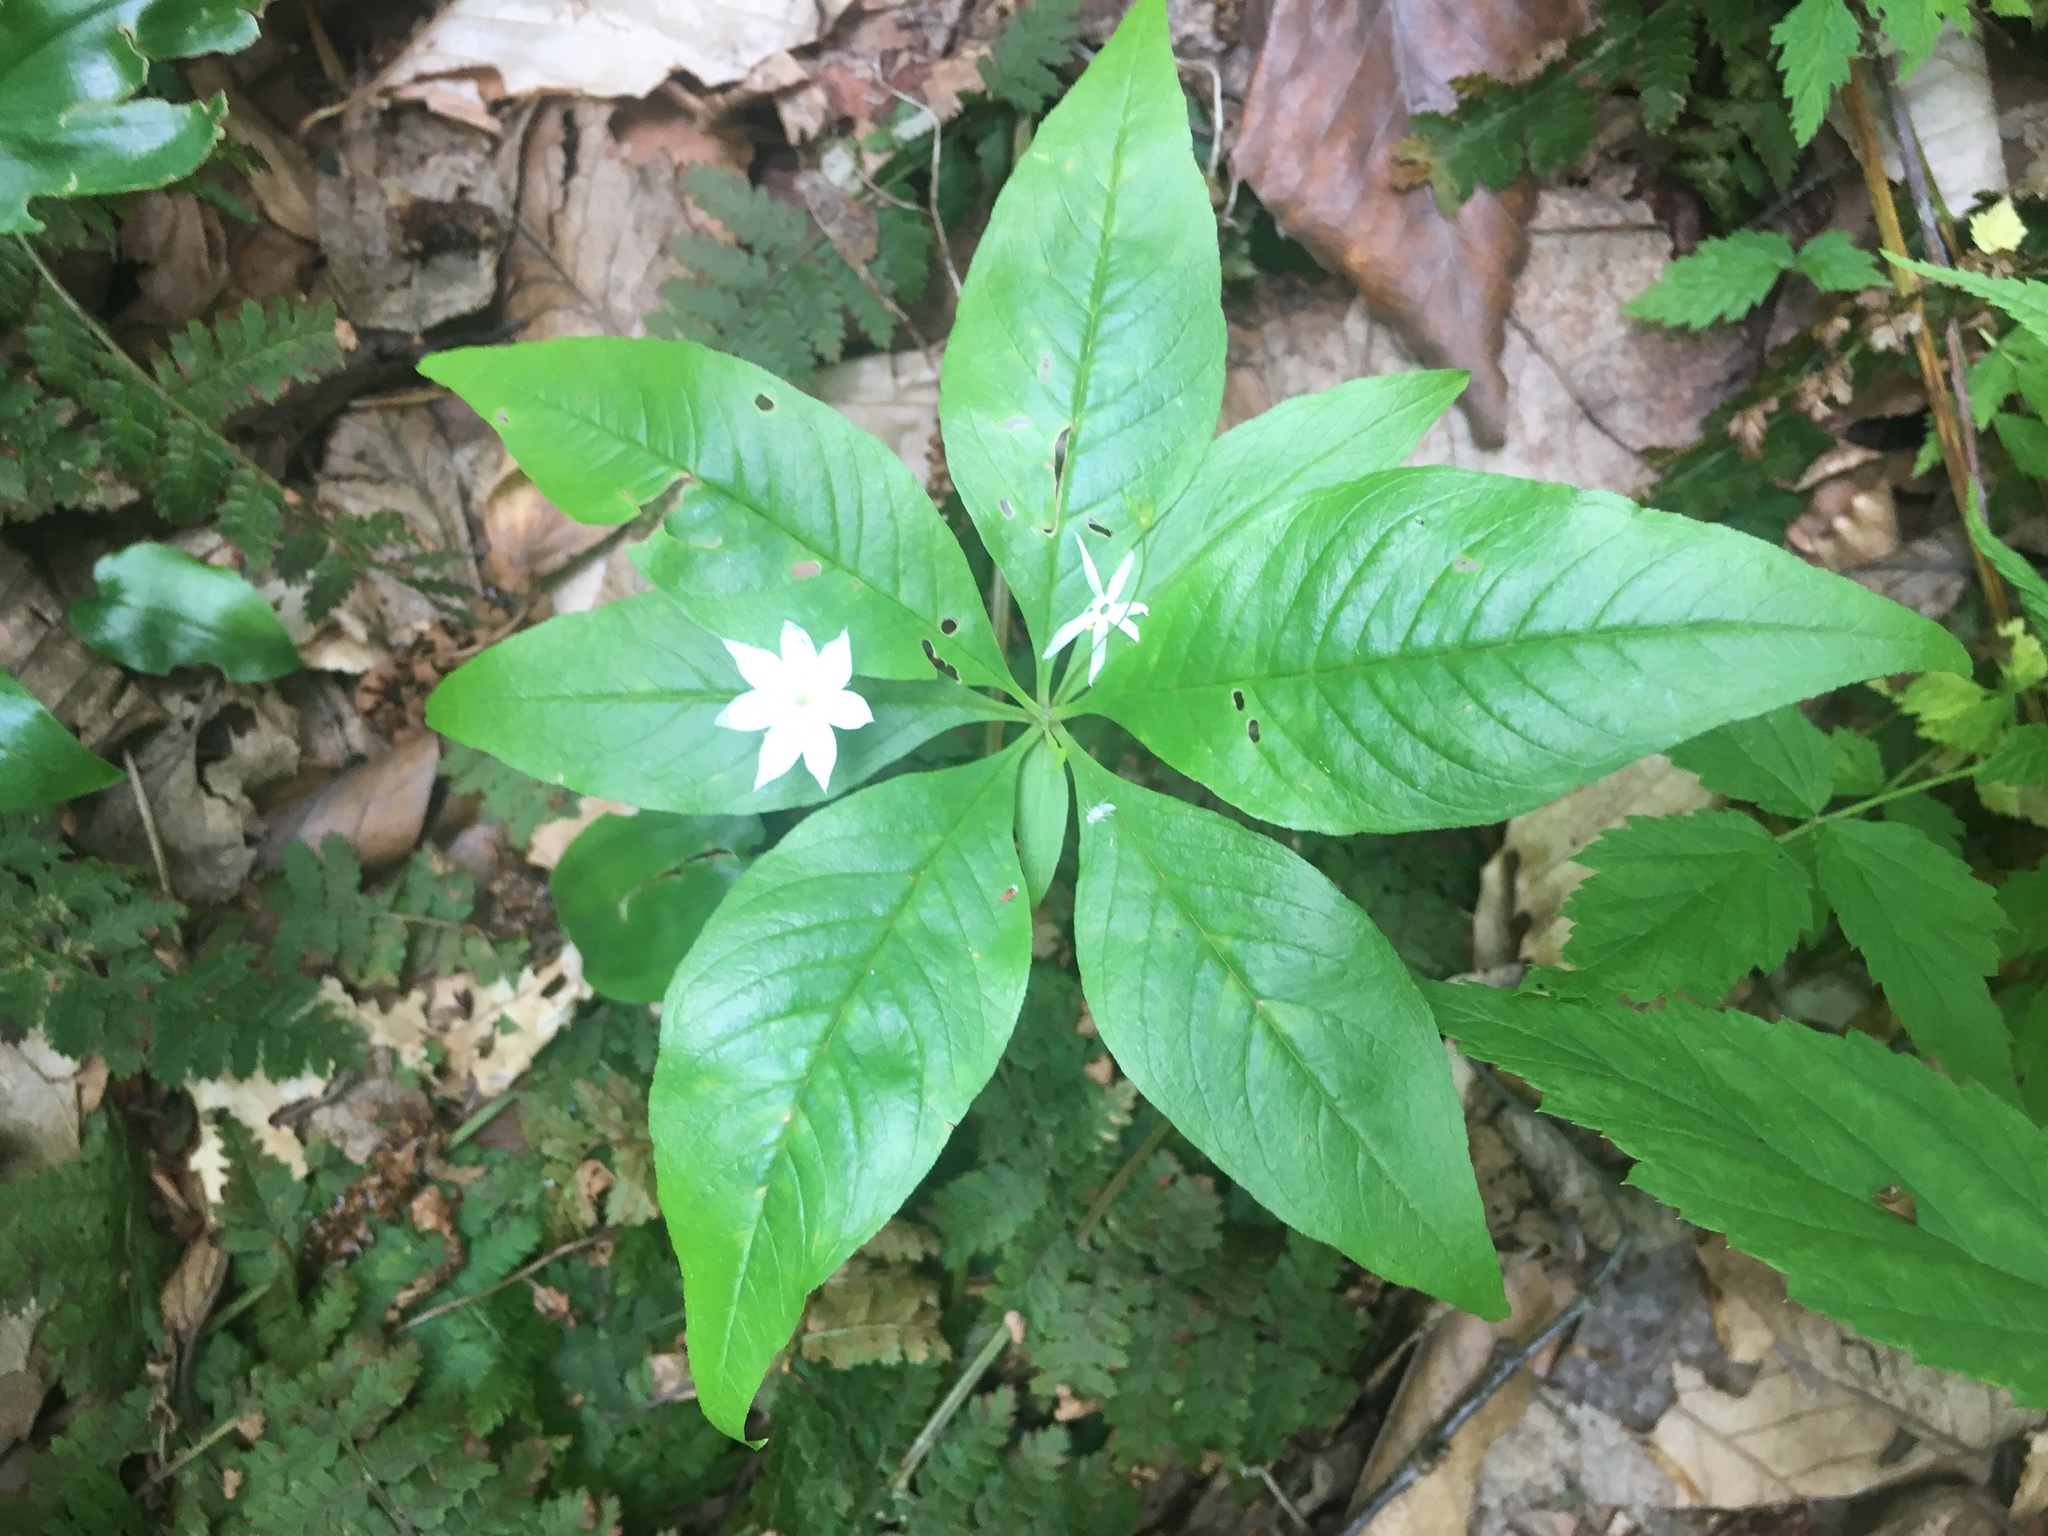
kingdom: Plantae
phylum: Tracheophyta
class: Magnoliopsida
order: Ericales
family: Primulaceae
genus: Lysimachia
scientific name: Lysimachia borealis
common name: American starflower
